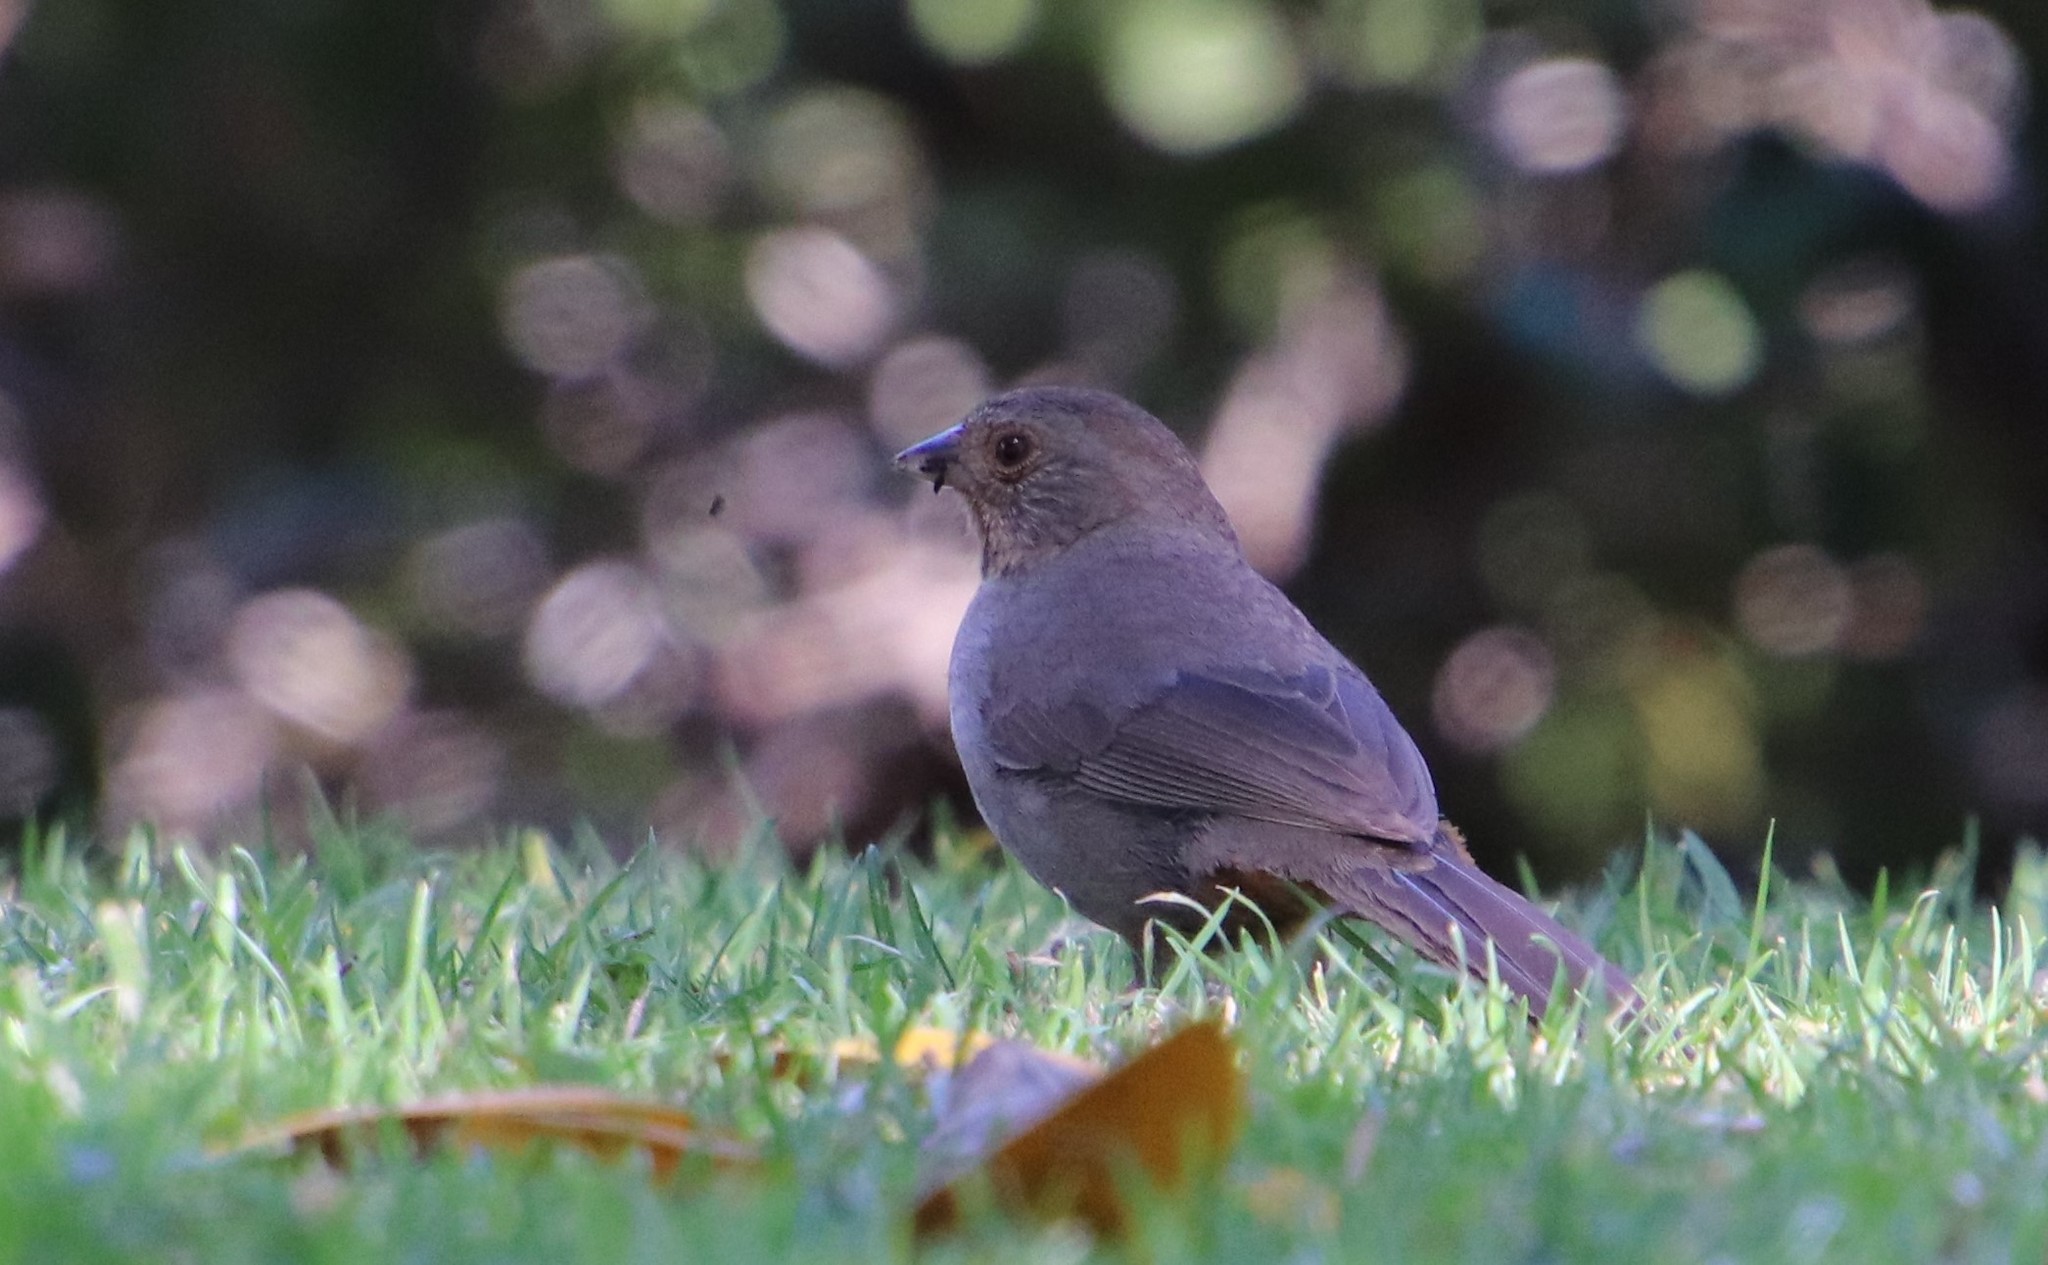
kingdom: Animalia
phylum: Chordata
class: Aves
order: Passeriformes
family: Passerellidae
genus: Melozone
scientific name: Melozone crissalis
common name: California towhee
